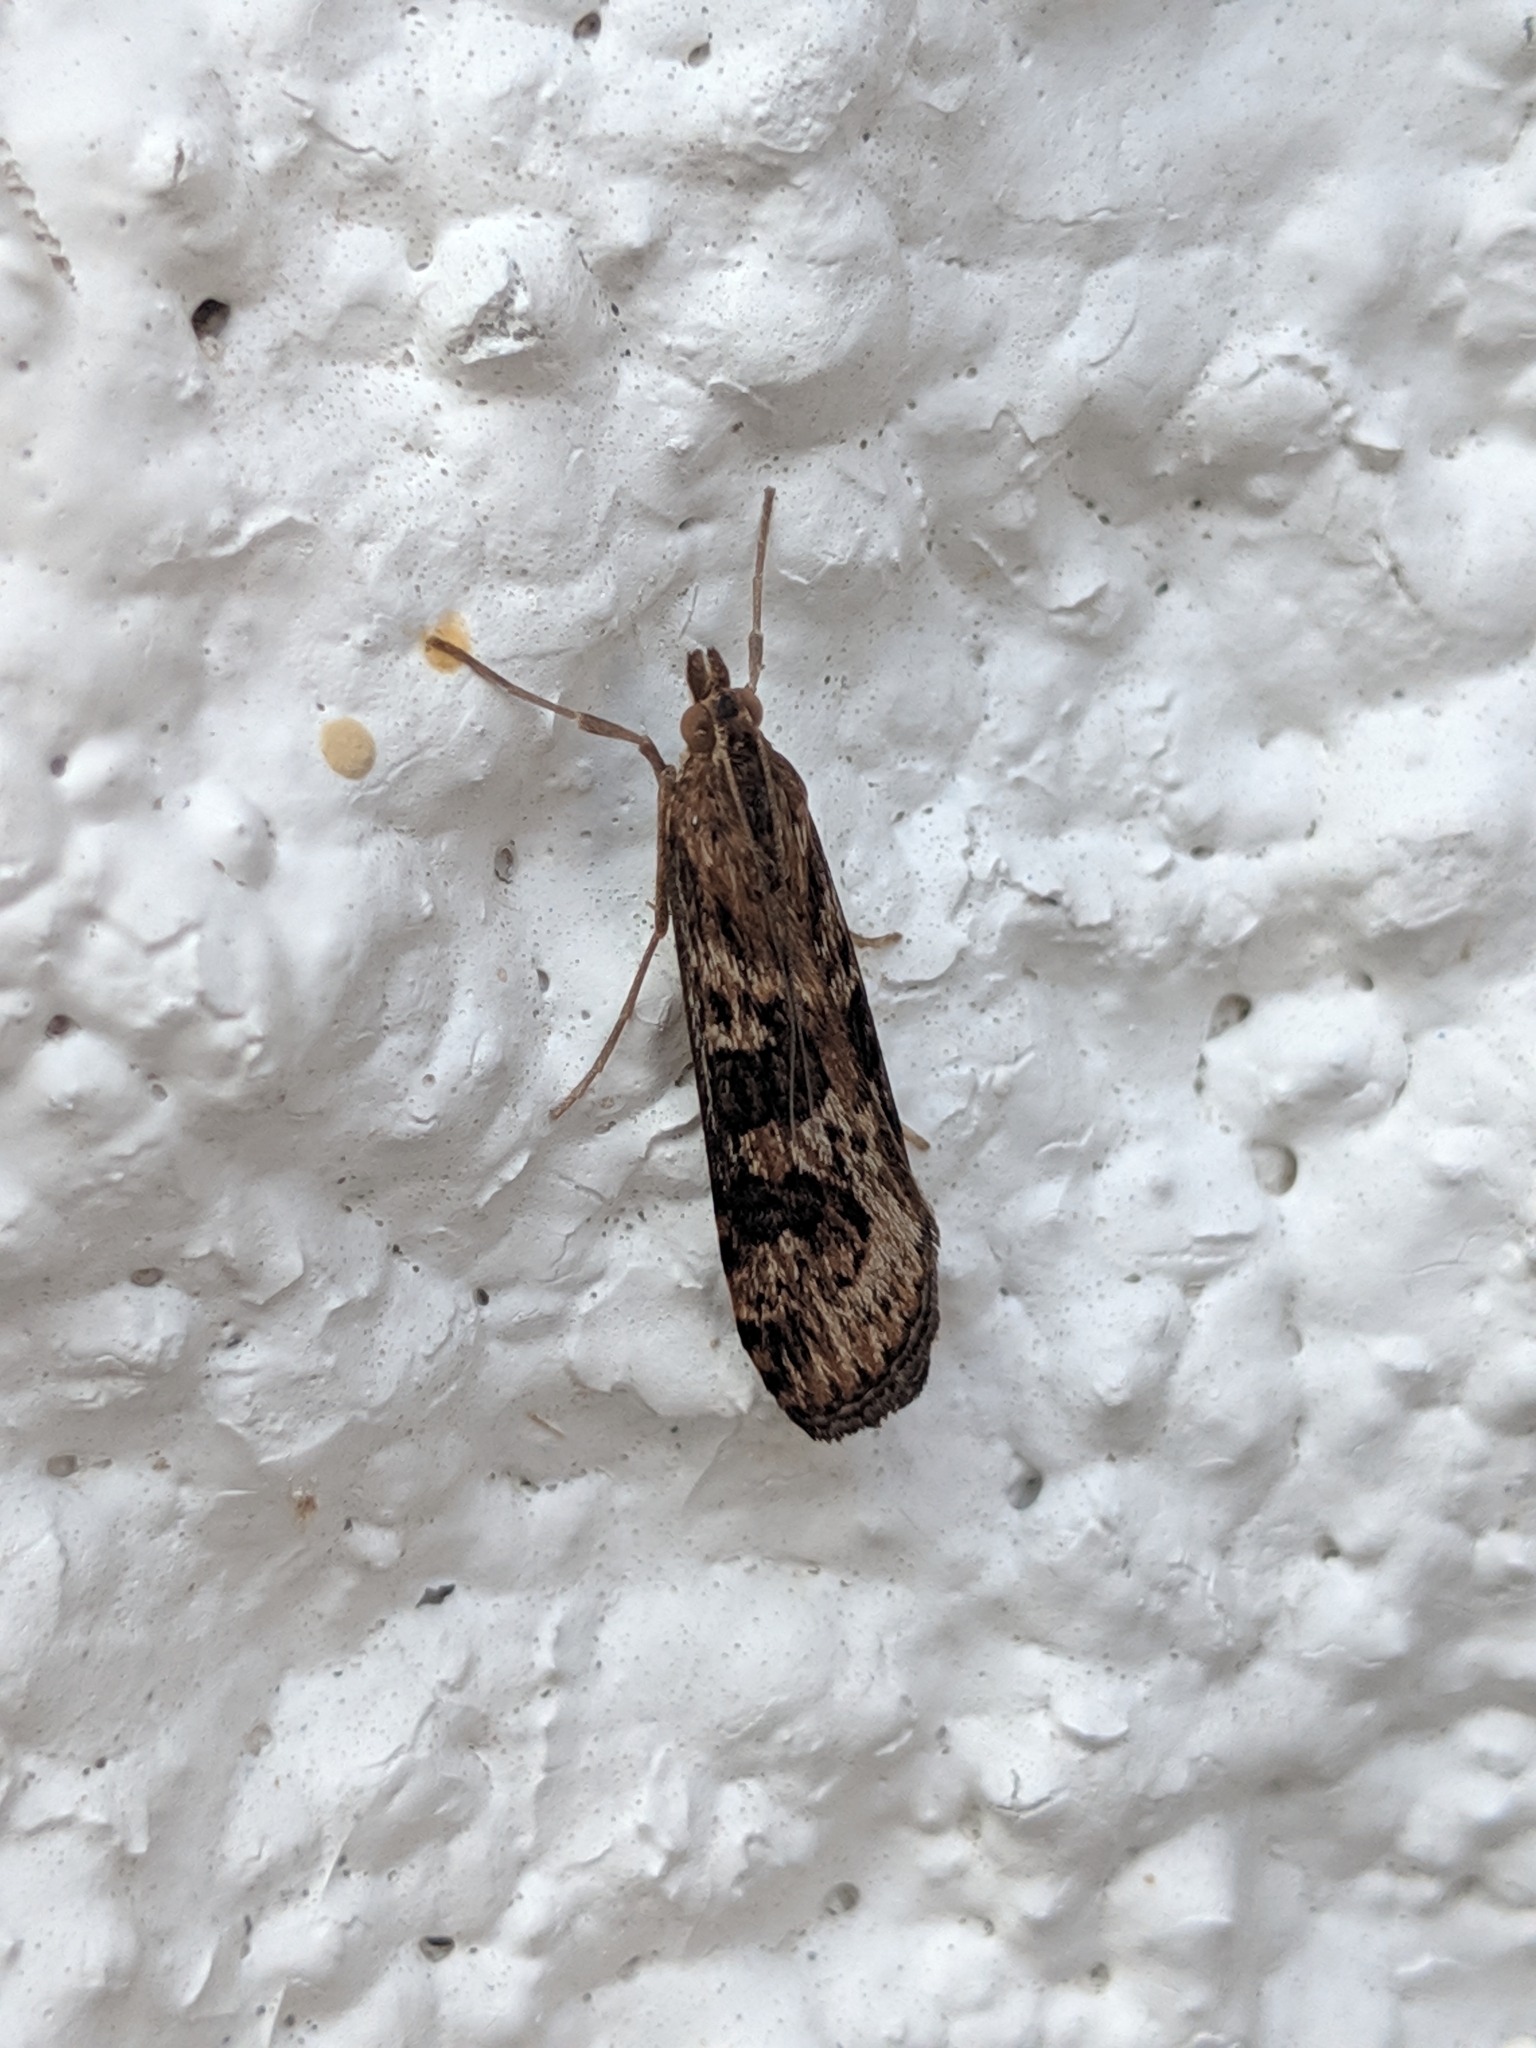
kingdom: Animalia
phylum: Arthropoda
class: Insecta
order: Lepidoptera
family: Crambidae
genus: Nomophila
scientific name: Nomophila nearctica
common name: American rush veneer
